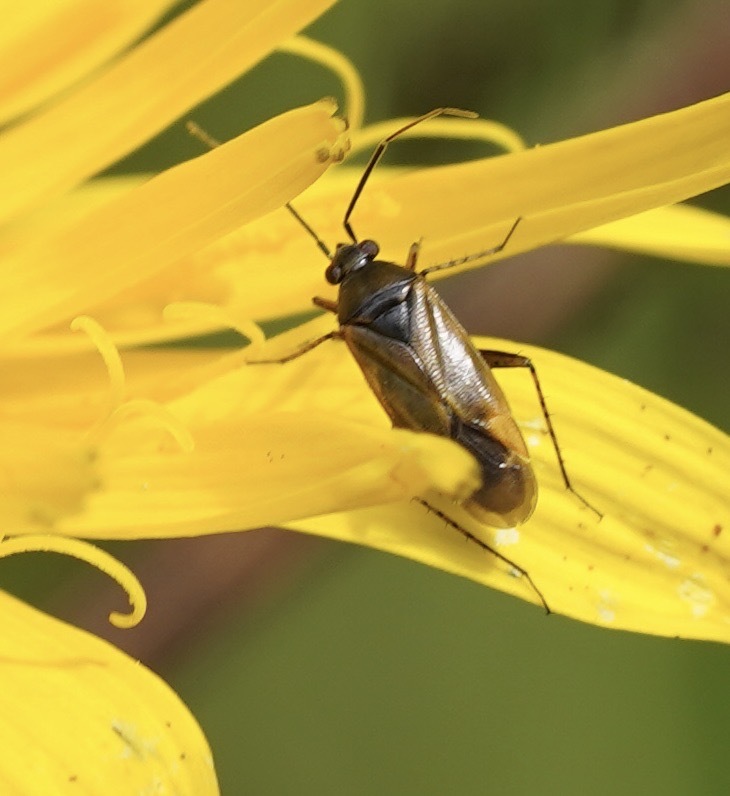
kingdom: Animalia
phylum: Arthropoda
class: Insecta
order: Hemiptera
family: Miridae
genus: Plagiognathus
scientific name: Plagiognathus arbustorum
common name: Plant bug
